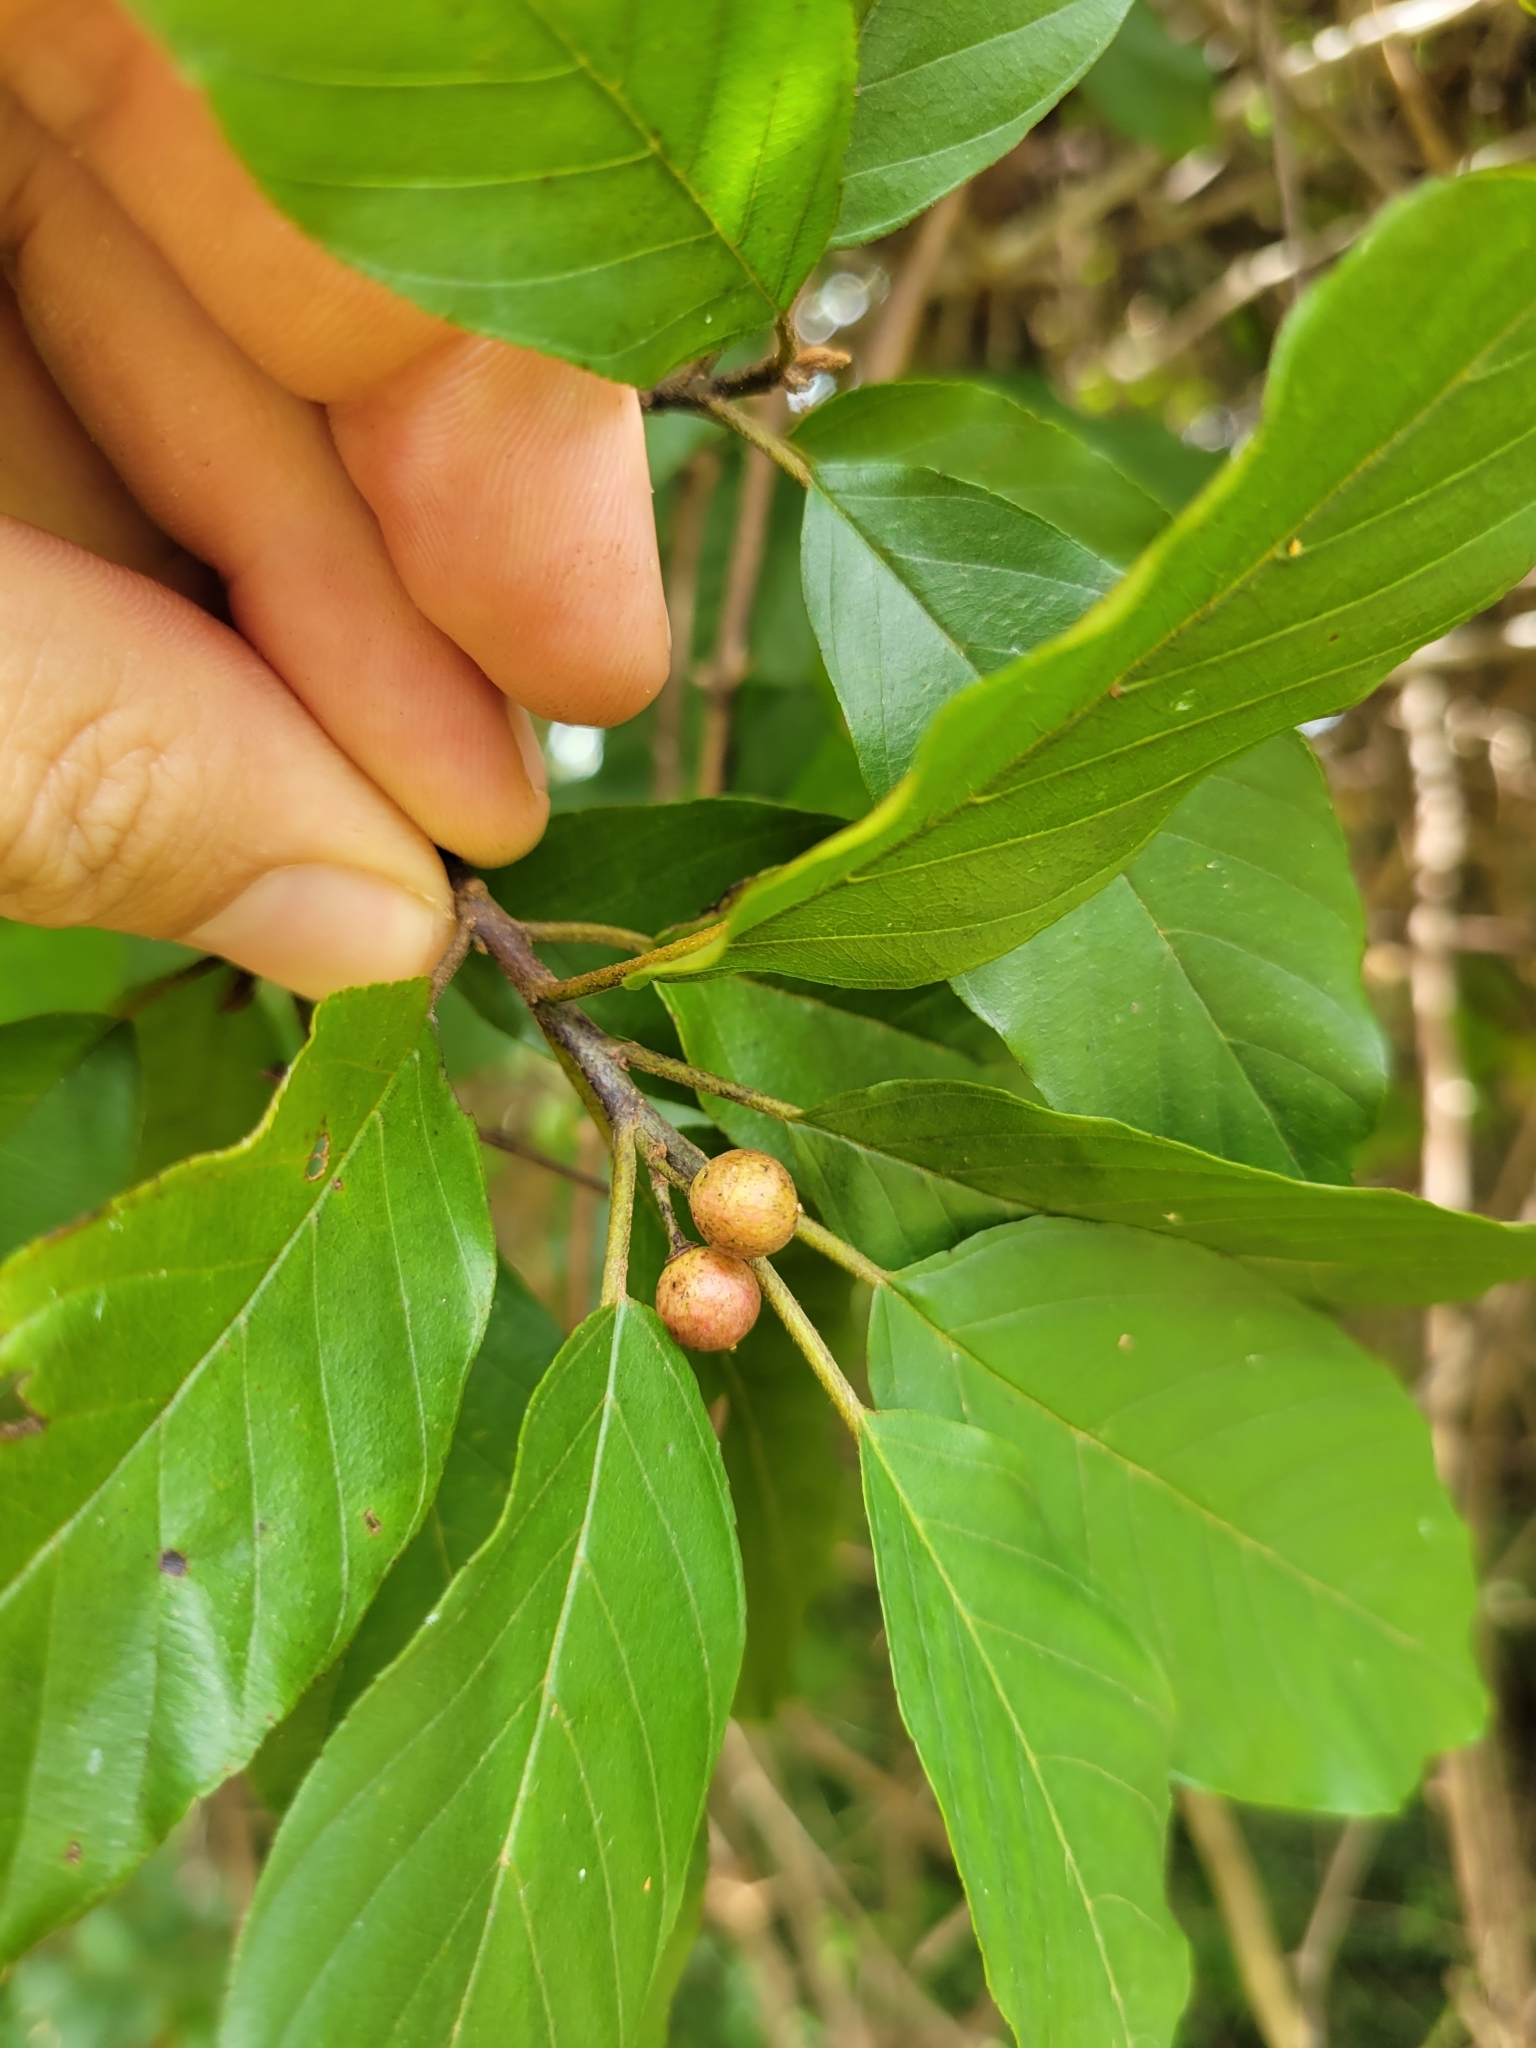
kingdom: Plantae
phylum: Tracheophyta
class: Magnoliopsida
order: Rosales
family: Rhamnaceae
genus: Frangula
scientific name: Frangula caroliniana
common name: Carolina buckthorn
